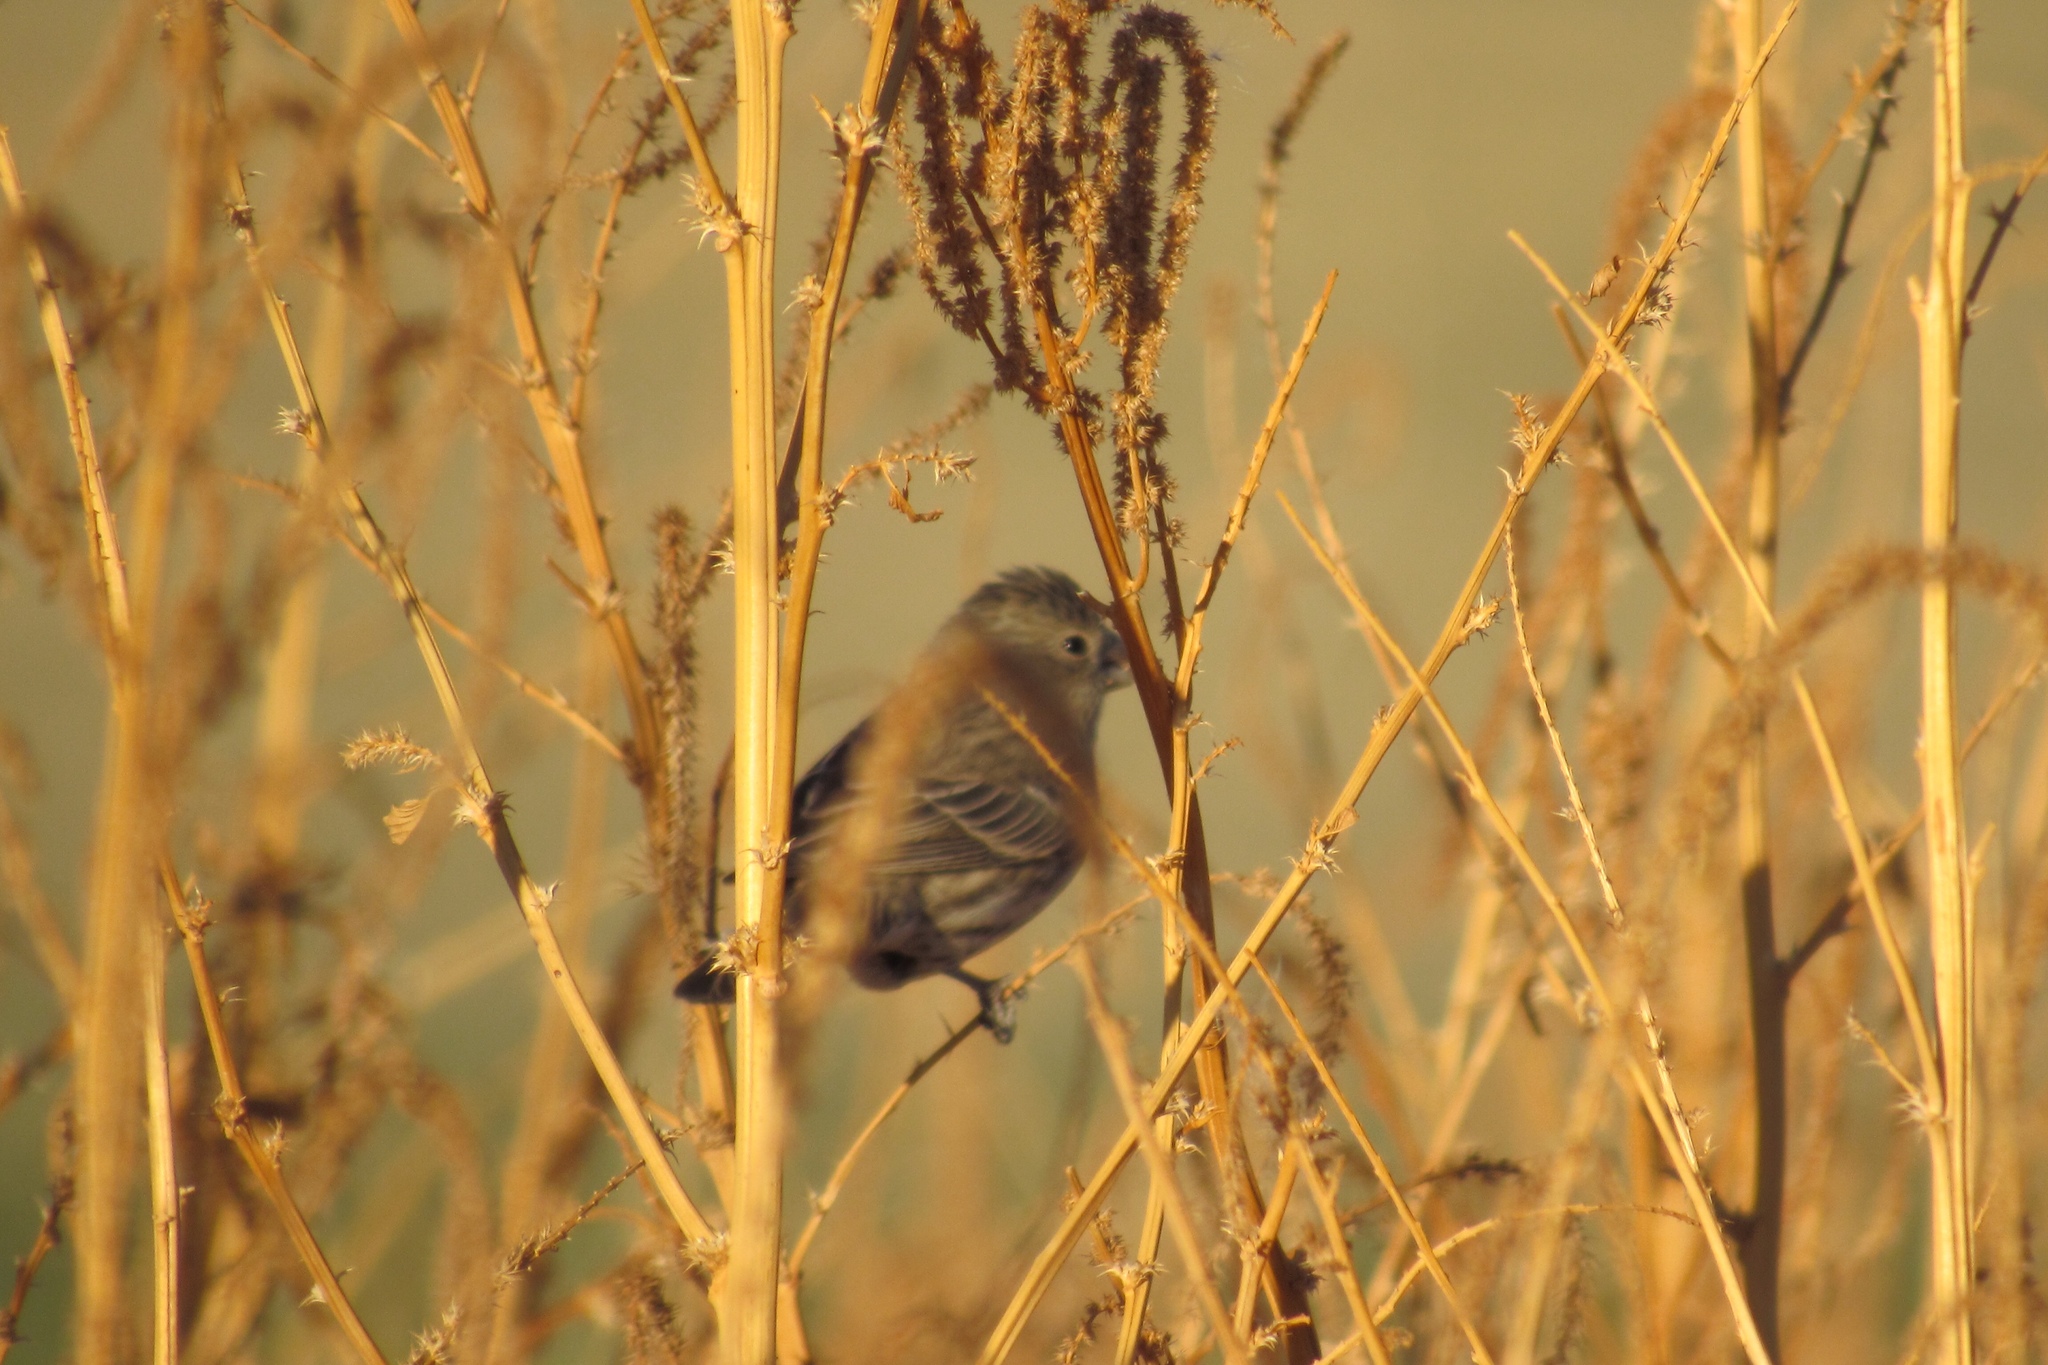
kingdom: Animalia
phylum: Chordata
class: Aves
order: Passeriformes
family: Fringillidae
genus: Haemorhous
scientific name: Haemorhous mexicanus
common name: House finch
